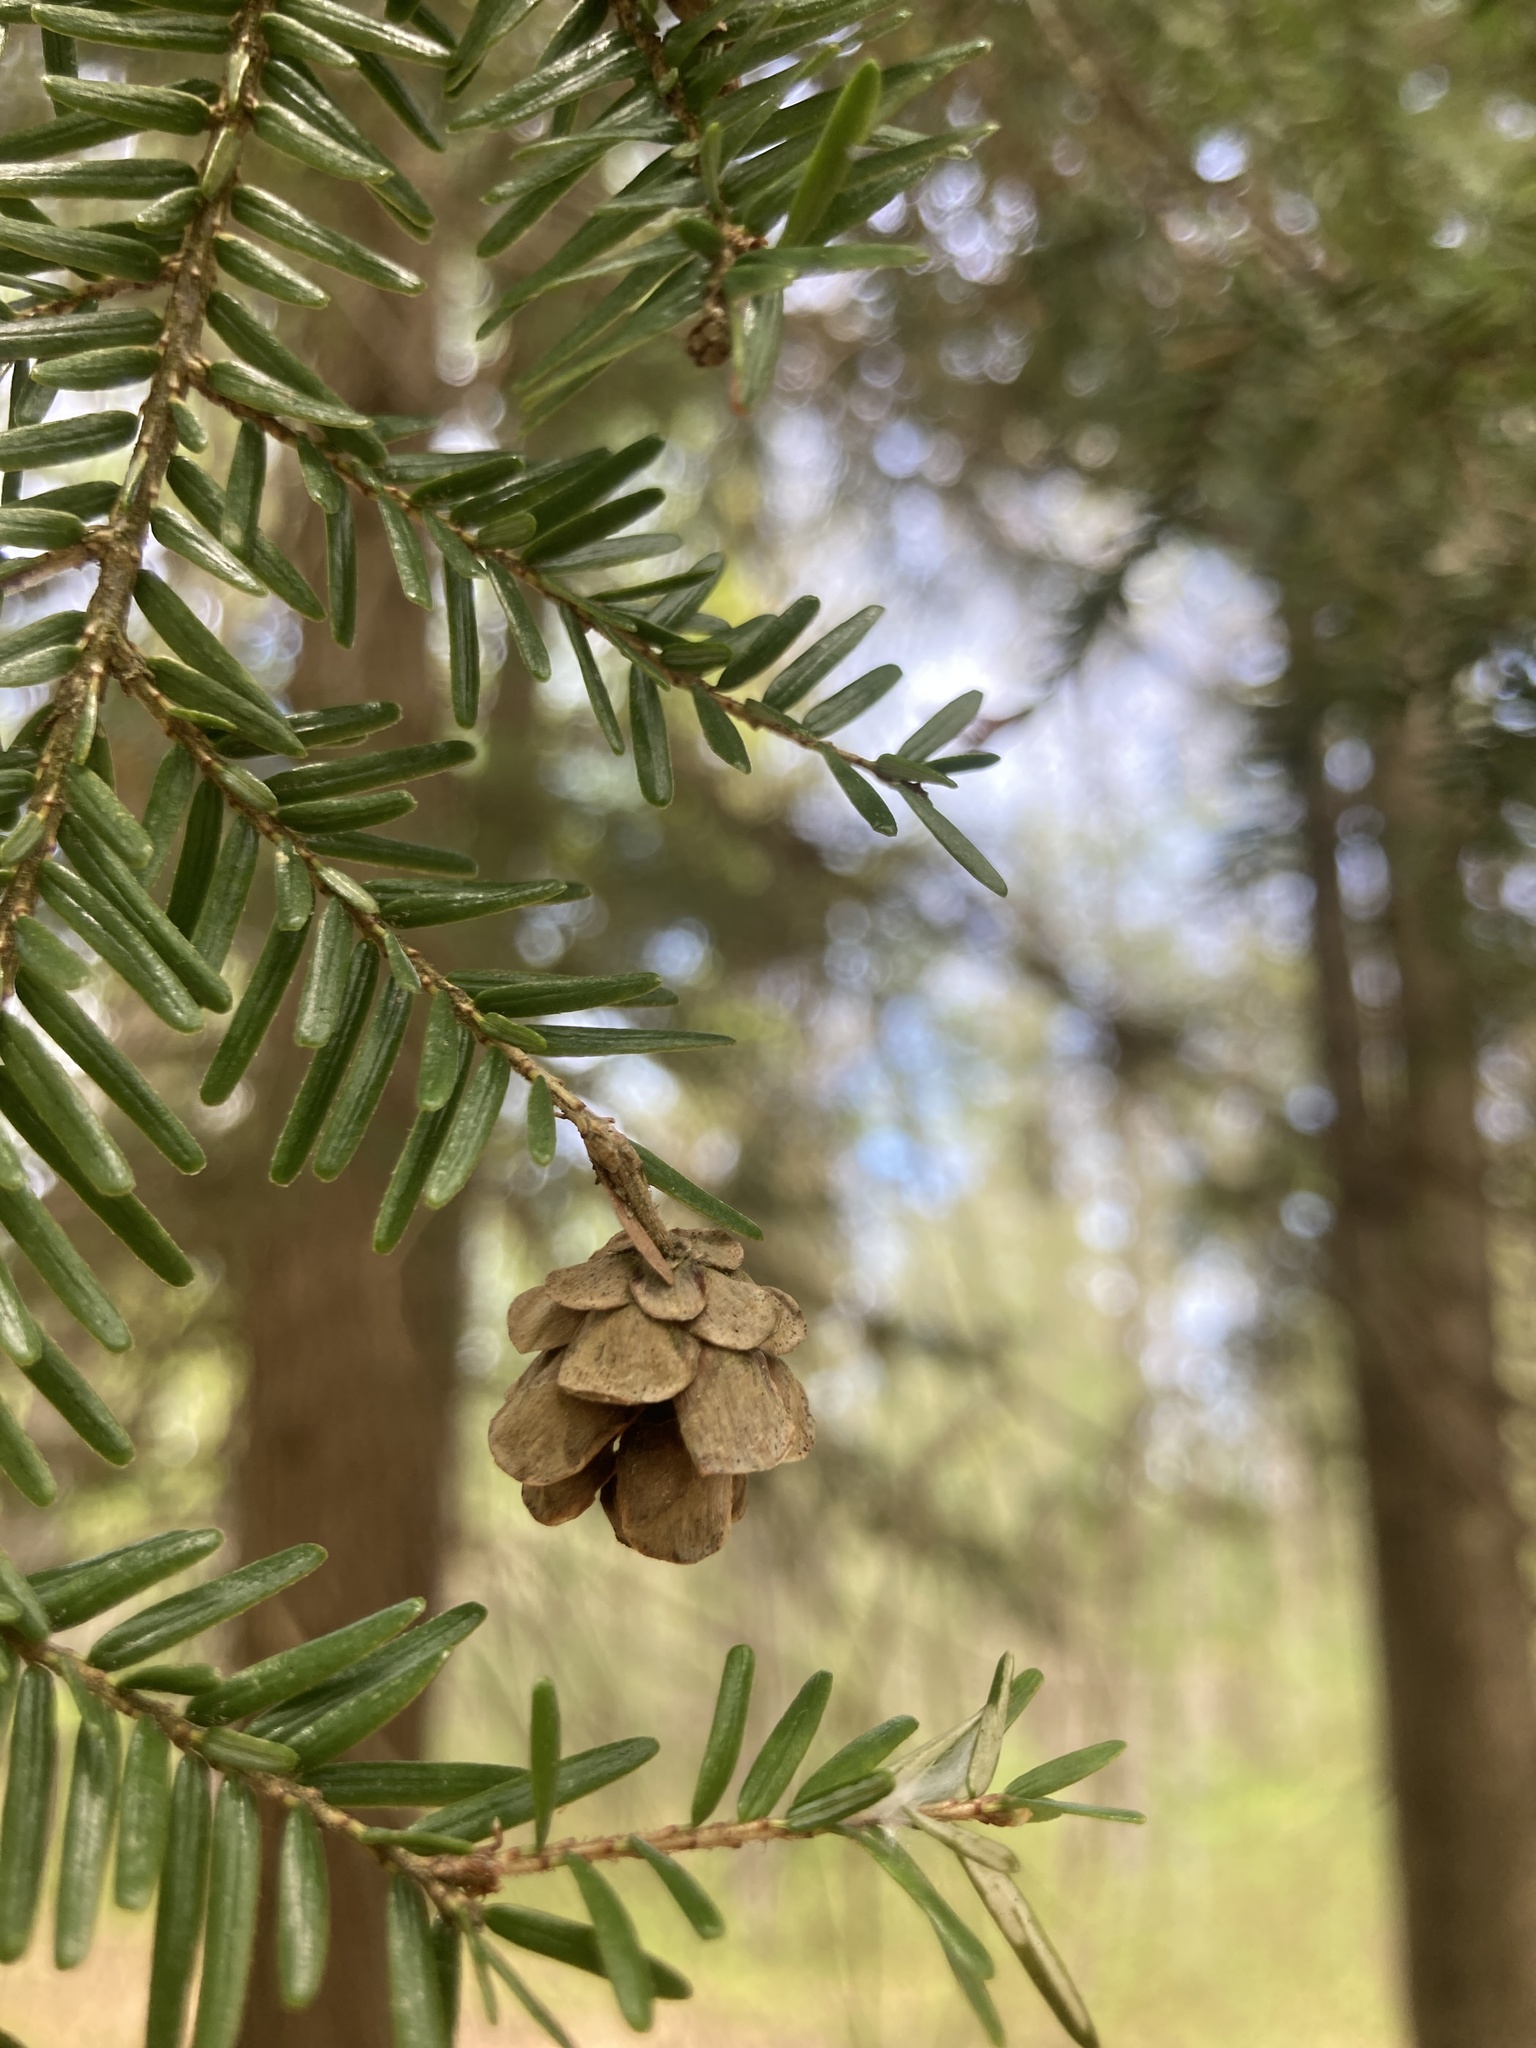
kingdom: Plantae
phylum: Tracheophyta
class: Pinopsida
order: Pinales
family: Pinaceae
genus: Tsuga
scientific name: Tsuga canadensis
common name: Eastern hemlock
